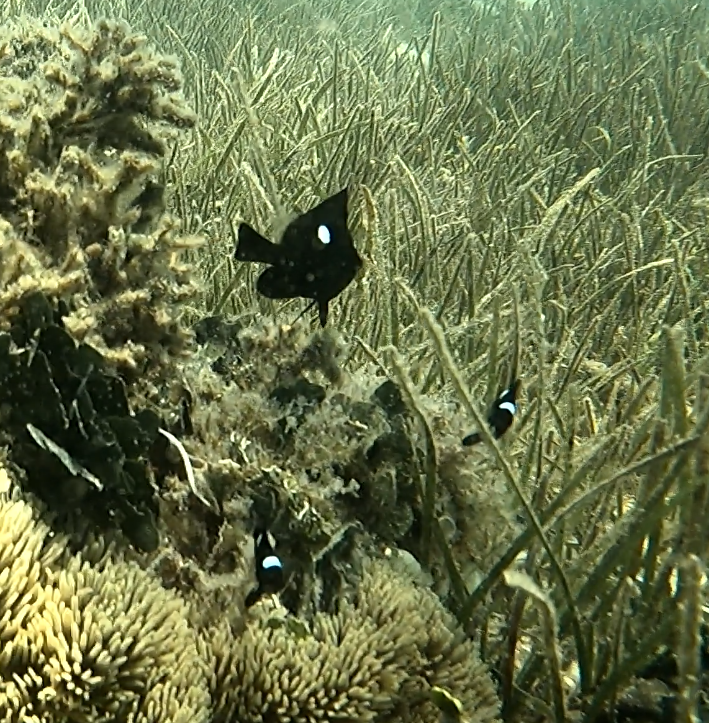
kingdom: Animalia
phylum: Chordata
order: Perciformes
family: Pomacentridae
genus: Dascyllus
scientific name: Dascyllus trimaculatus
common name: Threespot dascyllus
